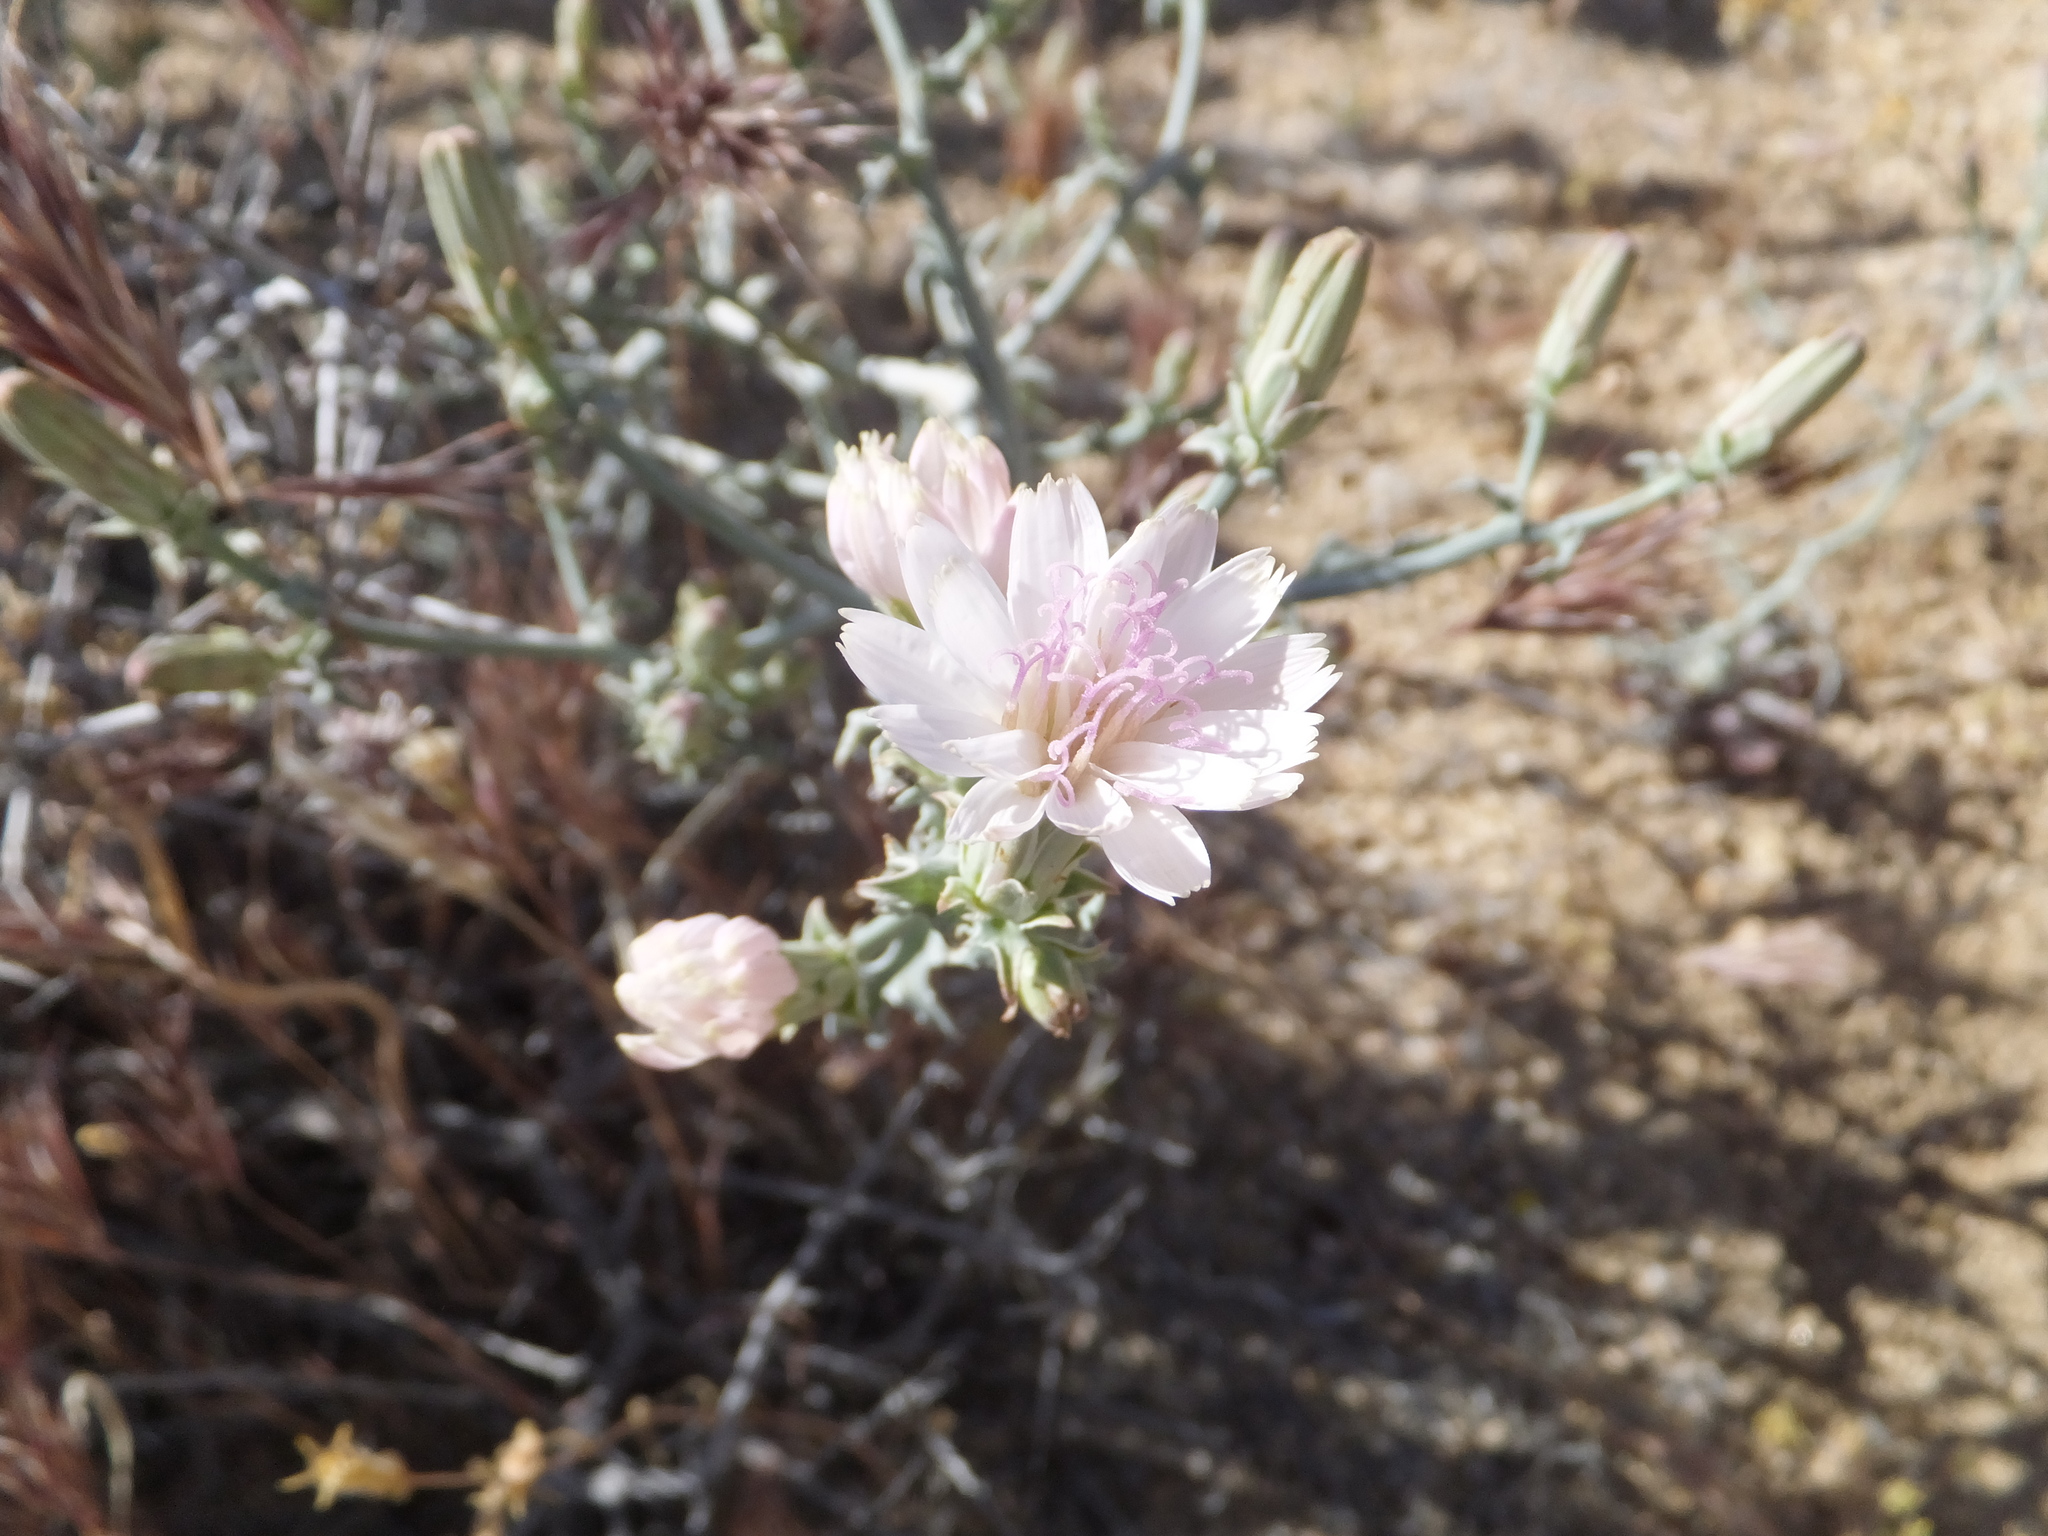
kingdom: Plantae
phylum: Tracheophyta
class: Magnoliopsida
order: Asterales
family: Asteraceae
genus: Stephanomeria
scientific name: Stephanomeria parryi
